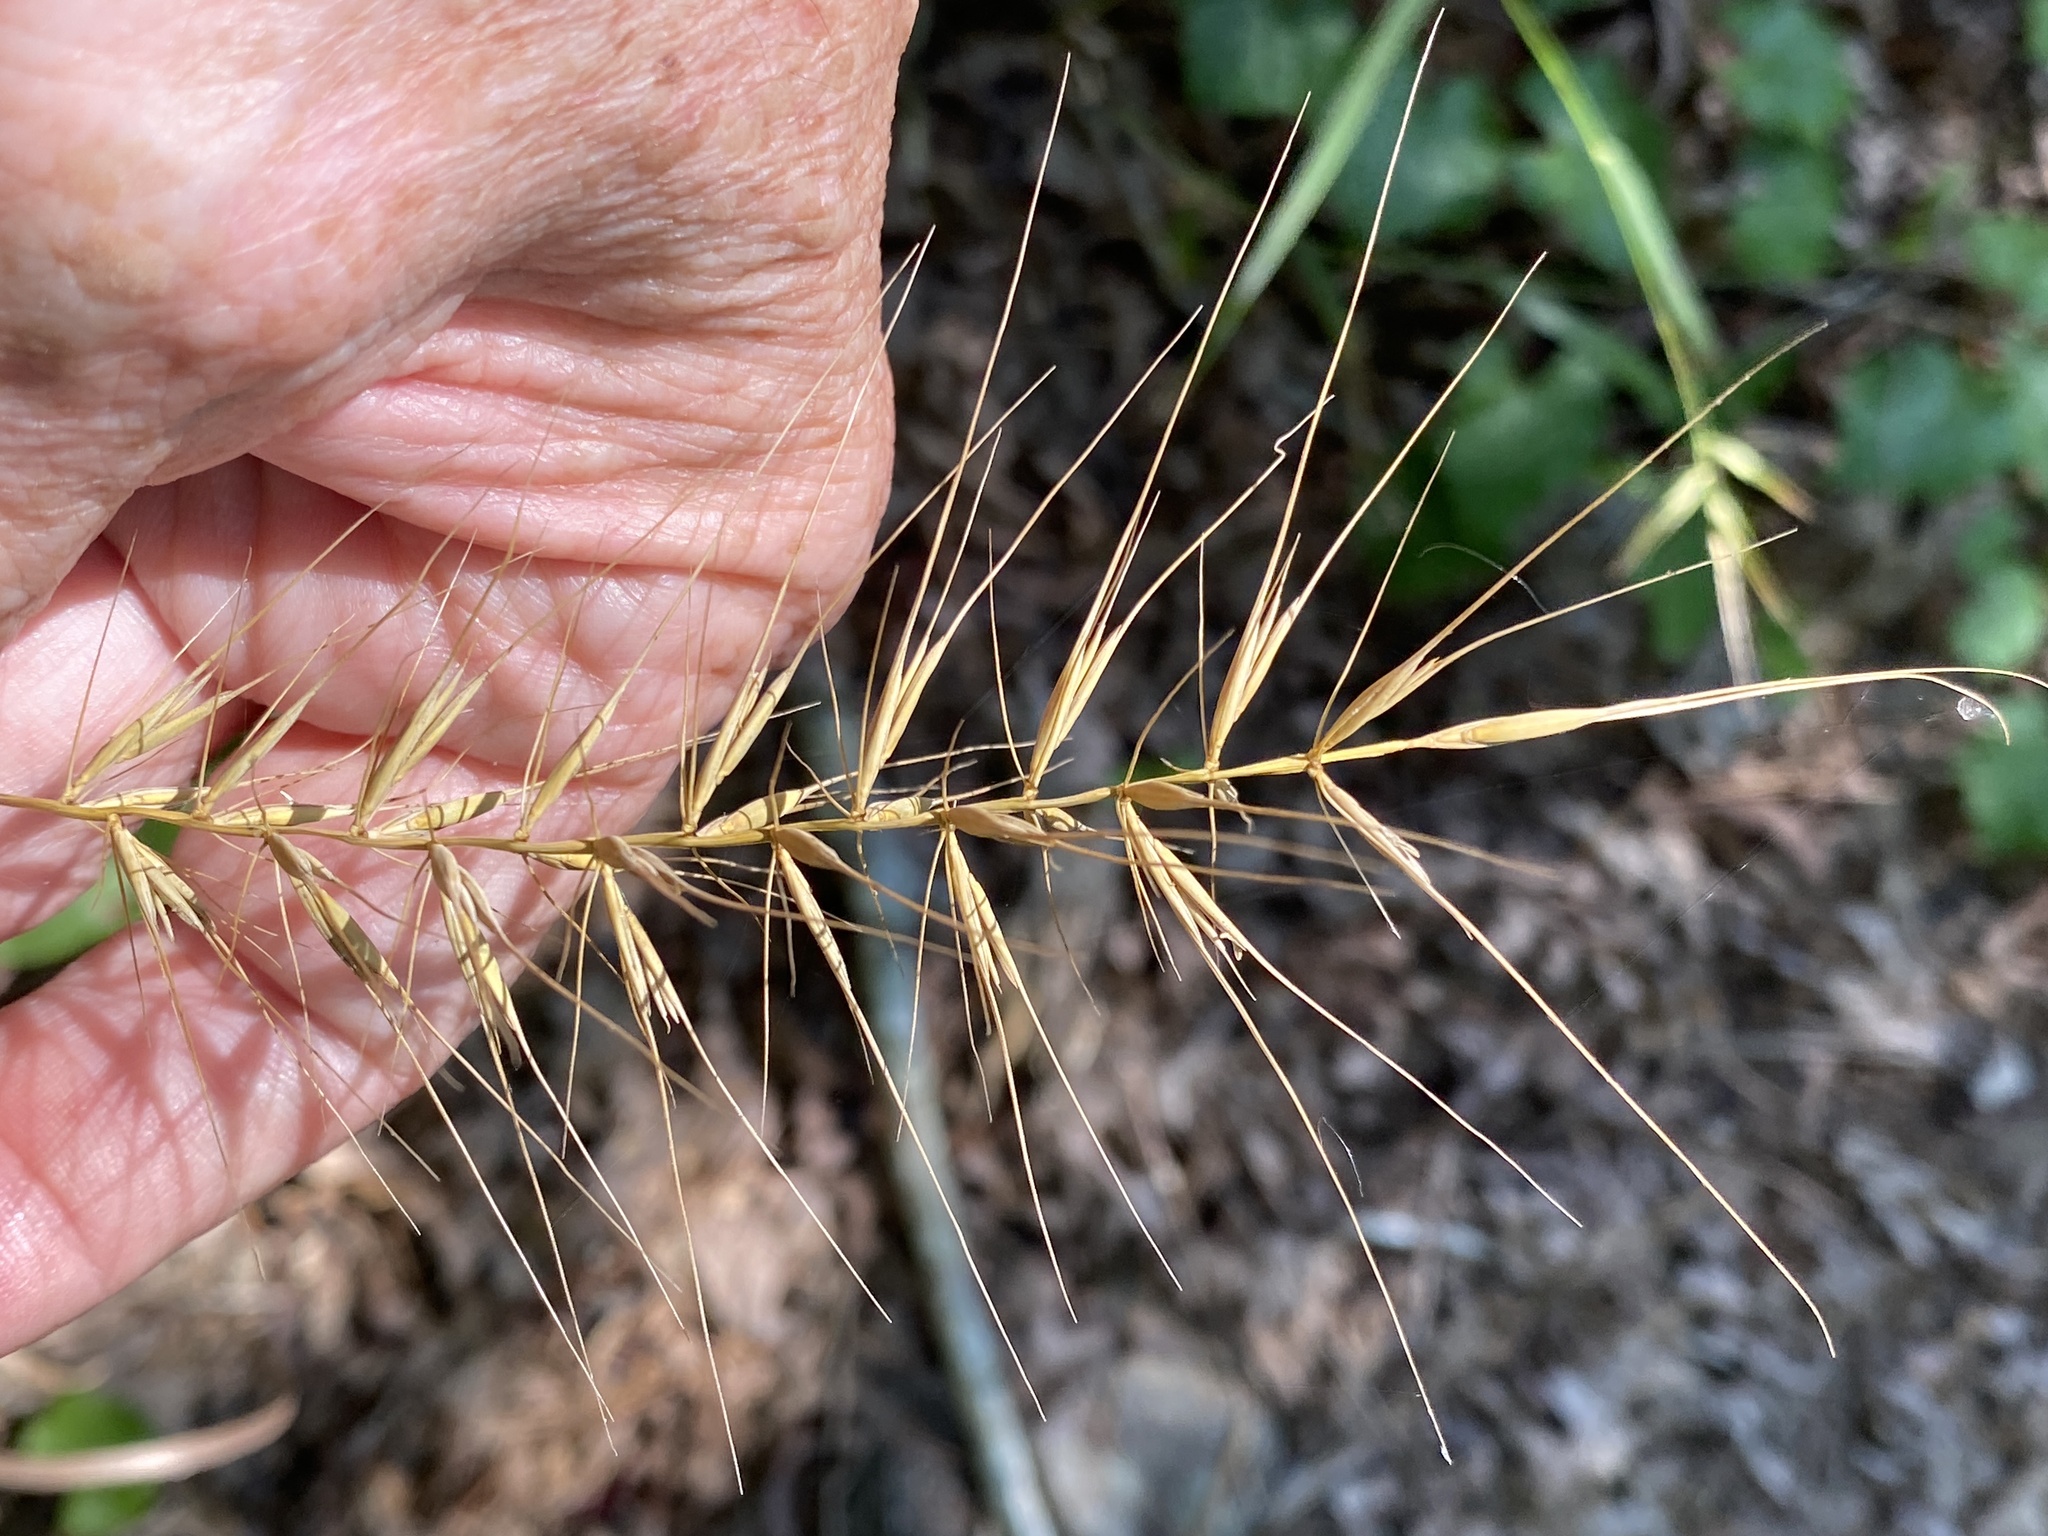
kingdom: Plantae
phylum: Tracheophyta
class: Liliopsida
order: Poales
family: Poaceae
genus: Elymus
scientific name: Elymus hystrix
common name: Bottlebrush grass
